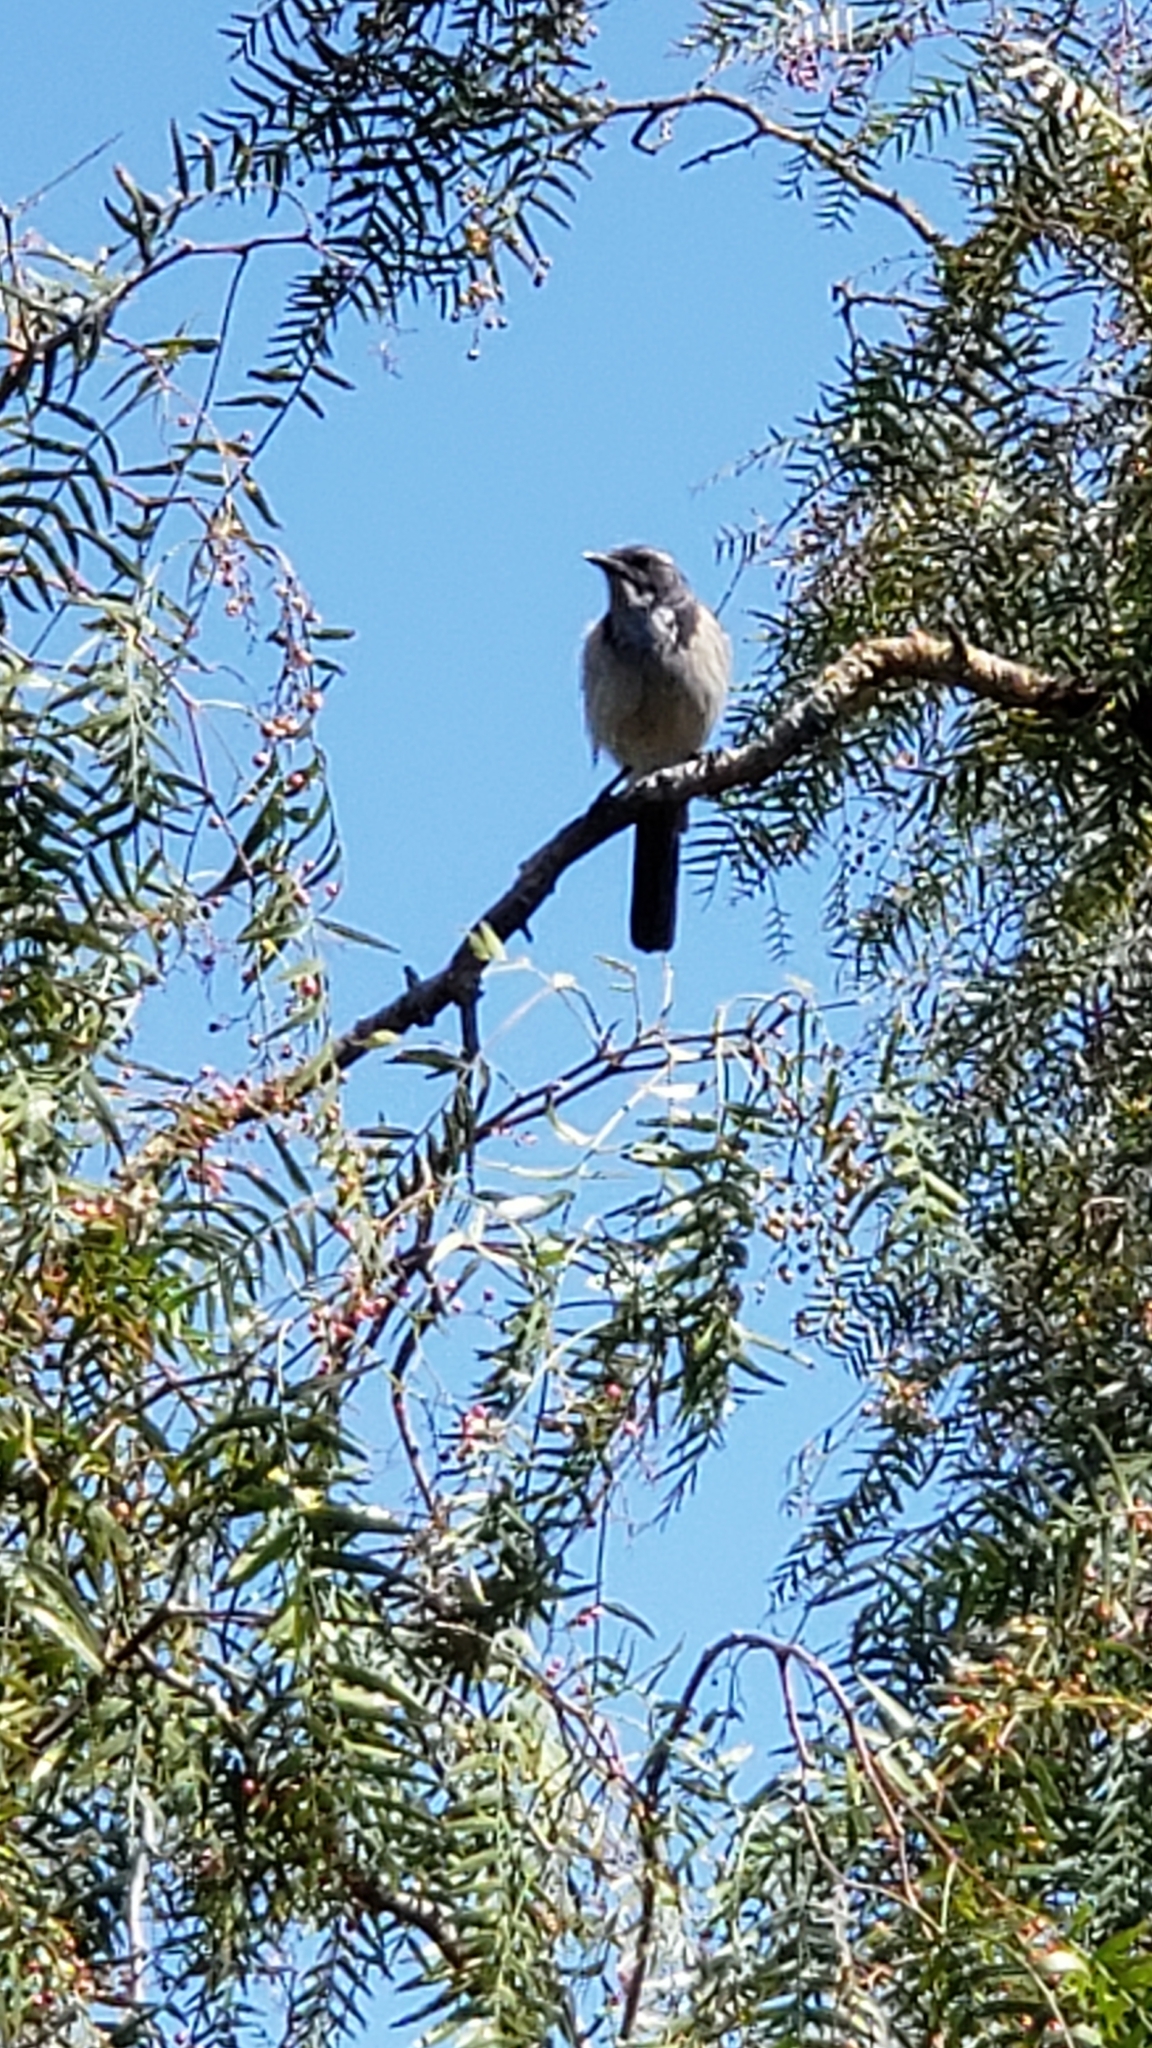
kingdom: Animalia
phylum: Chordata
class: Aves
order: Passeriformes
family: Corvidae
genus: Aphelocoma
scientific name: Aphelocoma californica
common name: California scrub-jay
